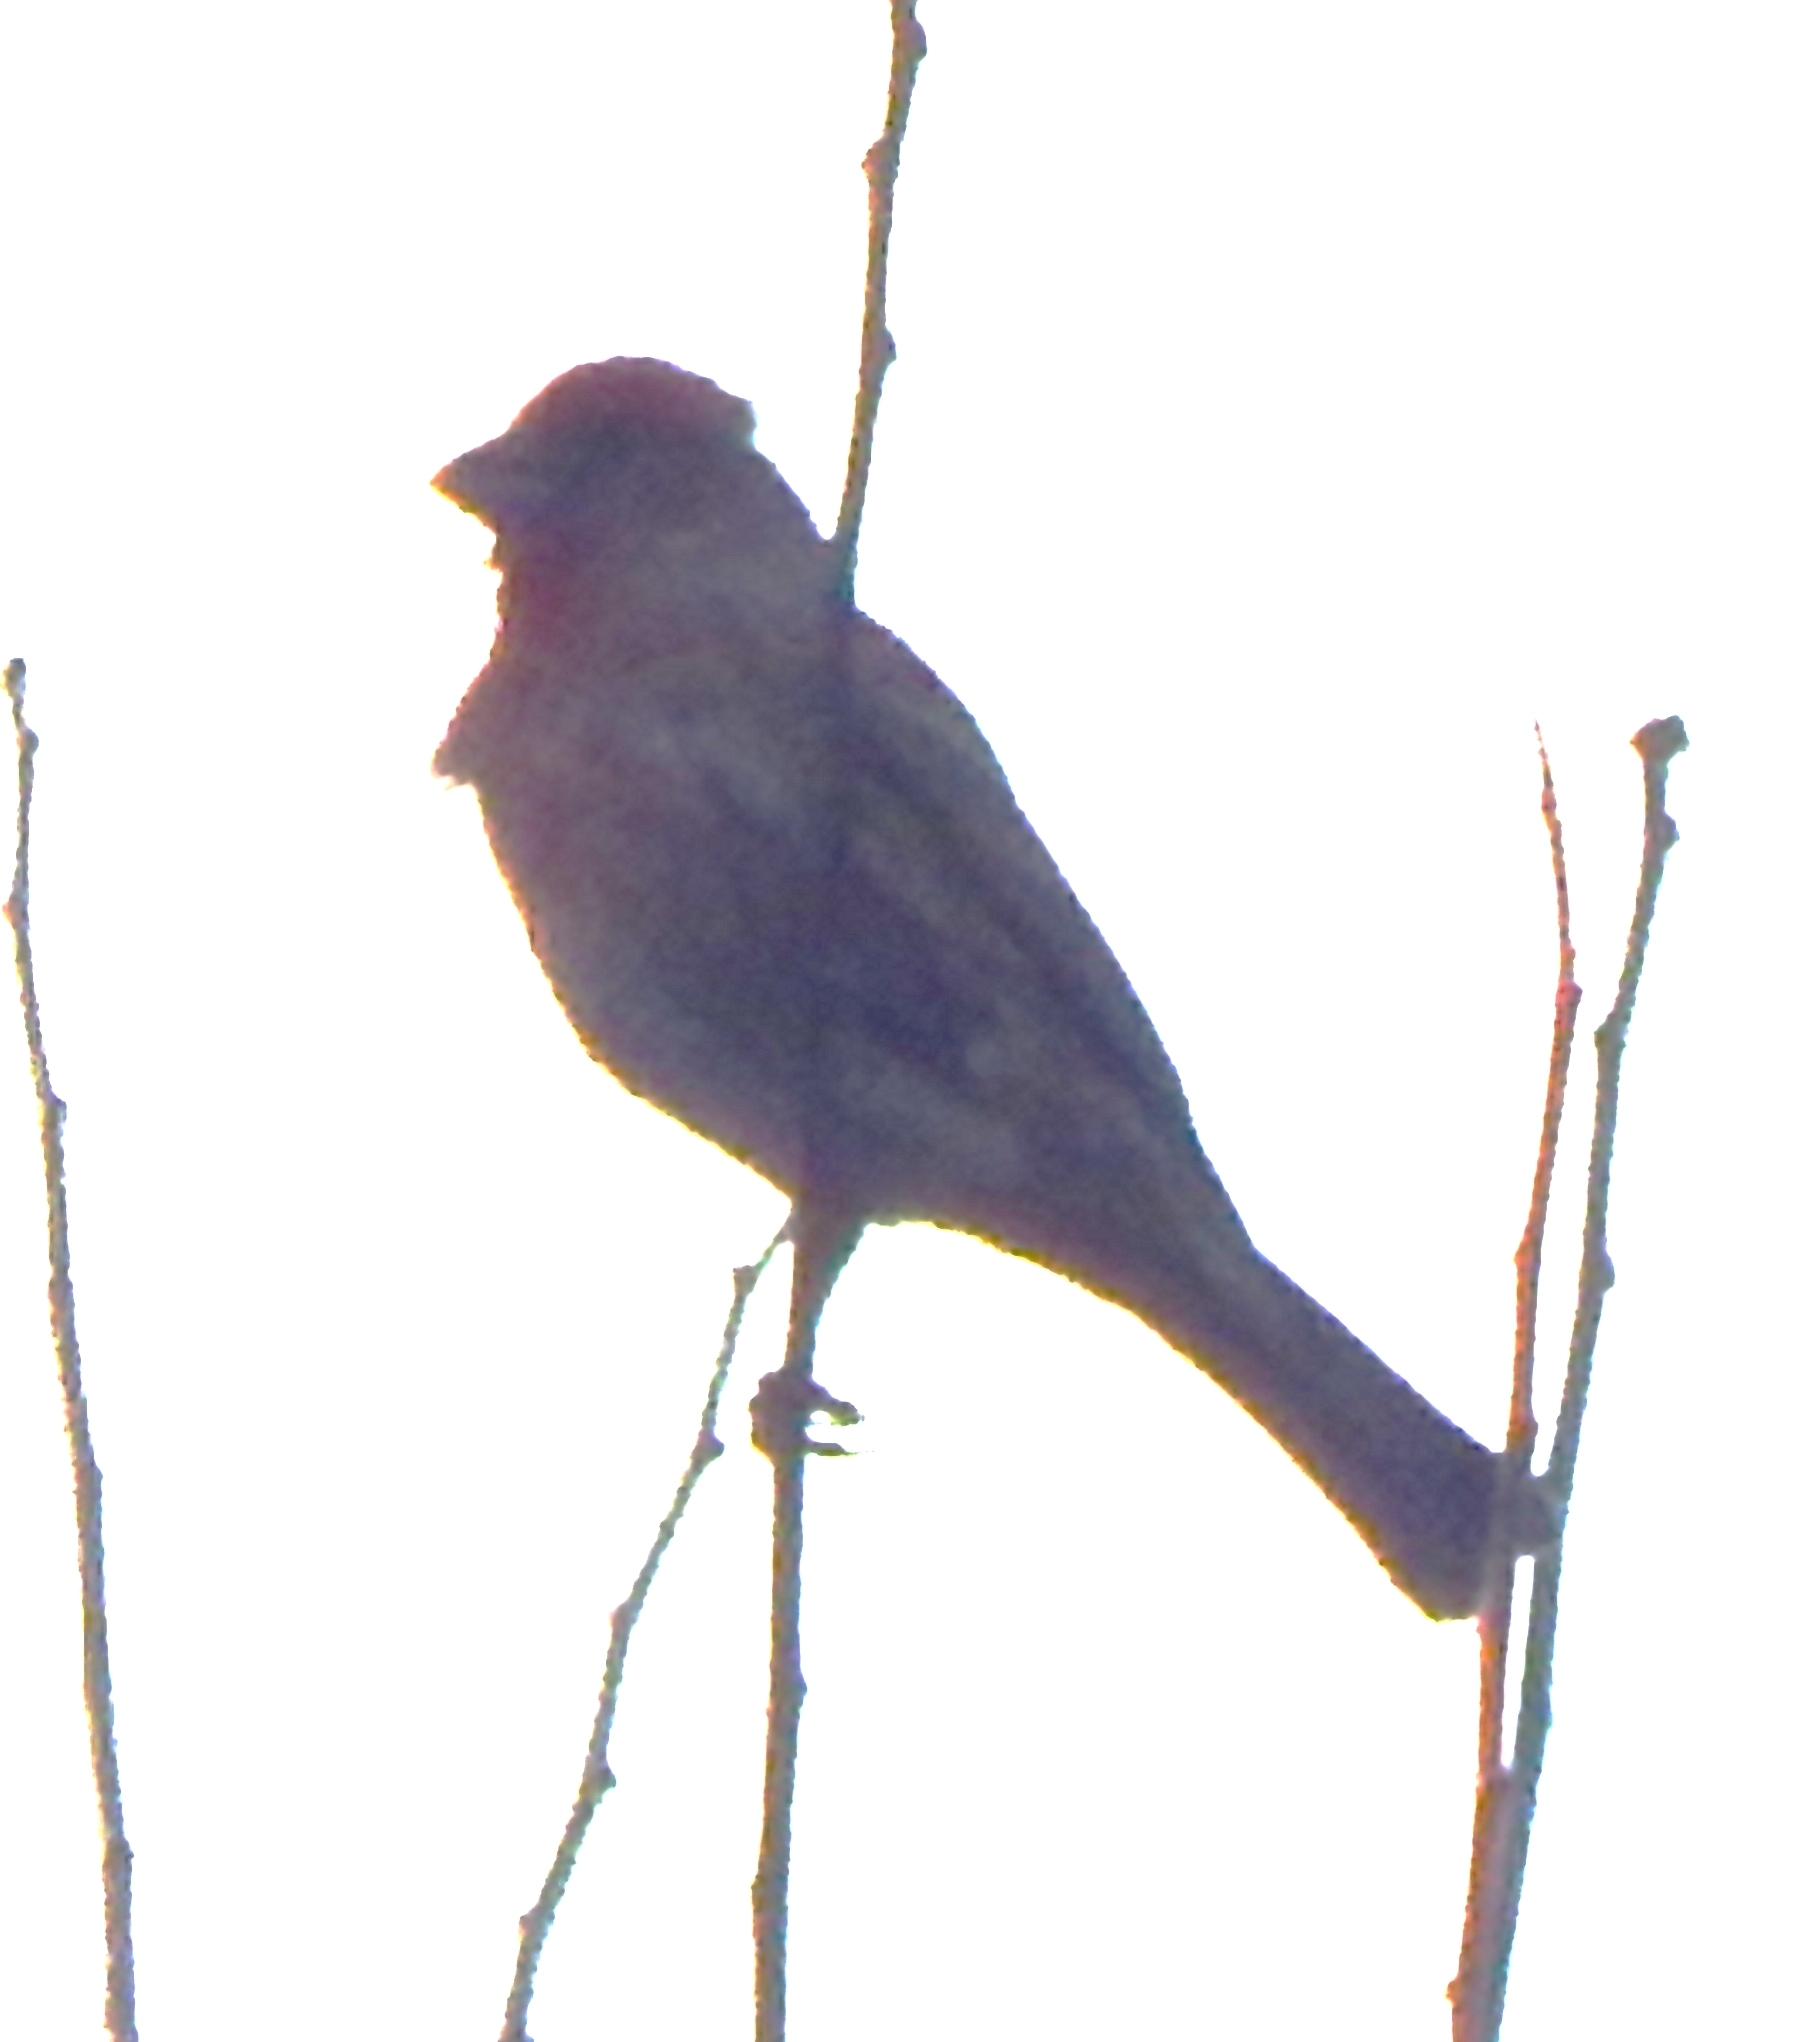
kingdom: Animalia
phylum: Chordata
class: Aves
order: Passeriformes
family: Fringillidae
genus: Haemorhous
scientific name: Haemorhous mexicanus
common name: House finch
